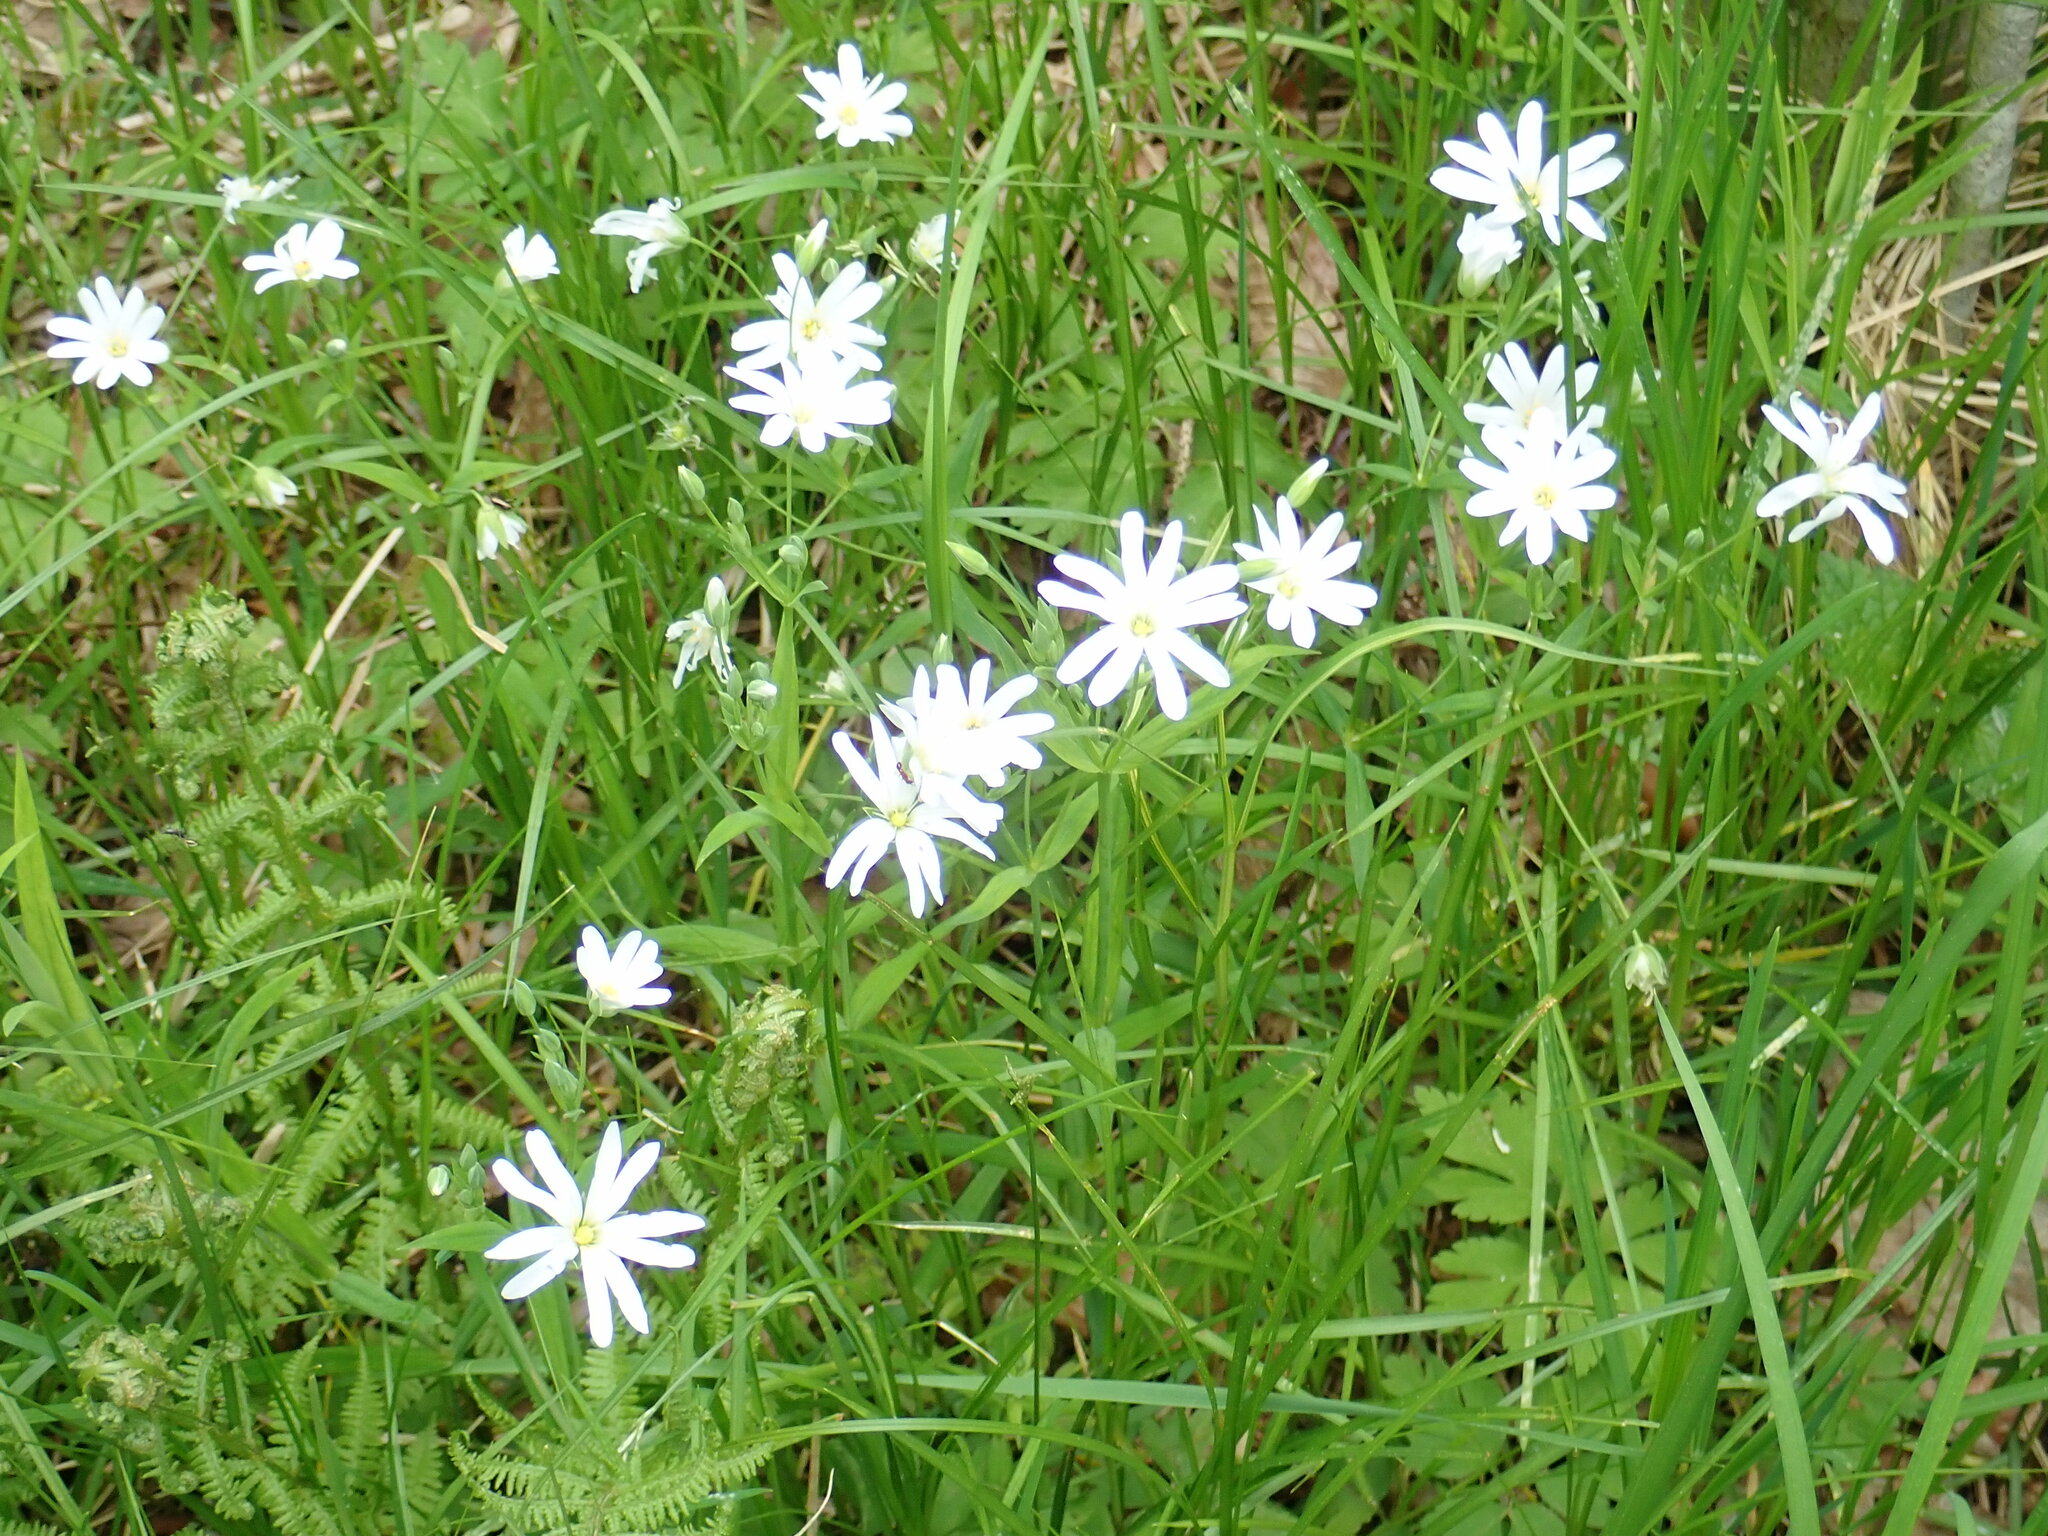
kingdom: Plantae
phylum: Tracheophyta
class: Magnoliopsida
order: Caryophyllales
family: Caryophyllaceae
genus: Rabelera
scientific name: Rabelera holostea
